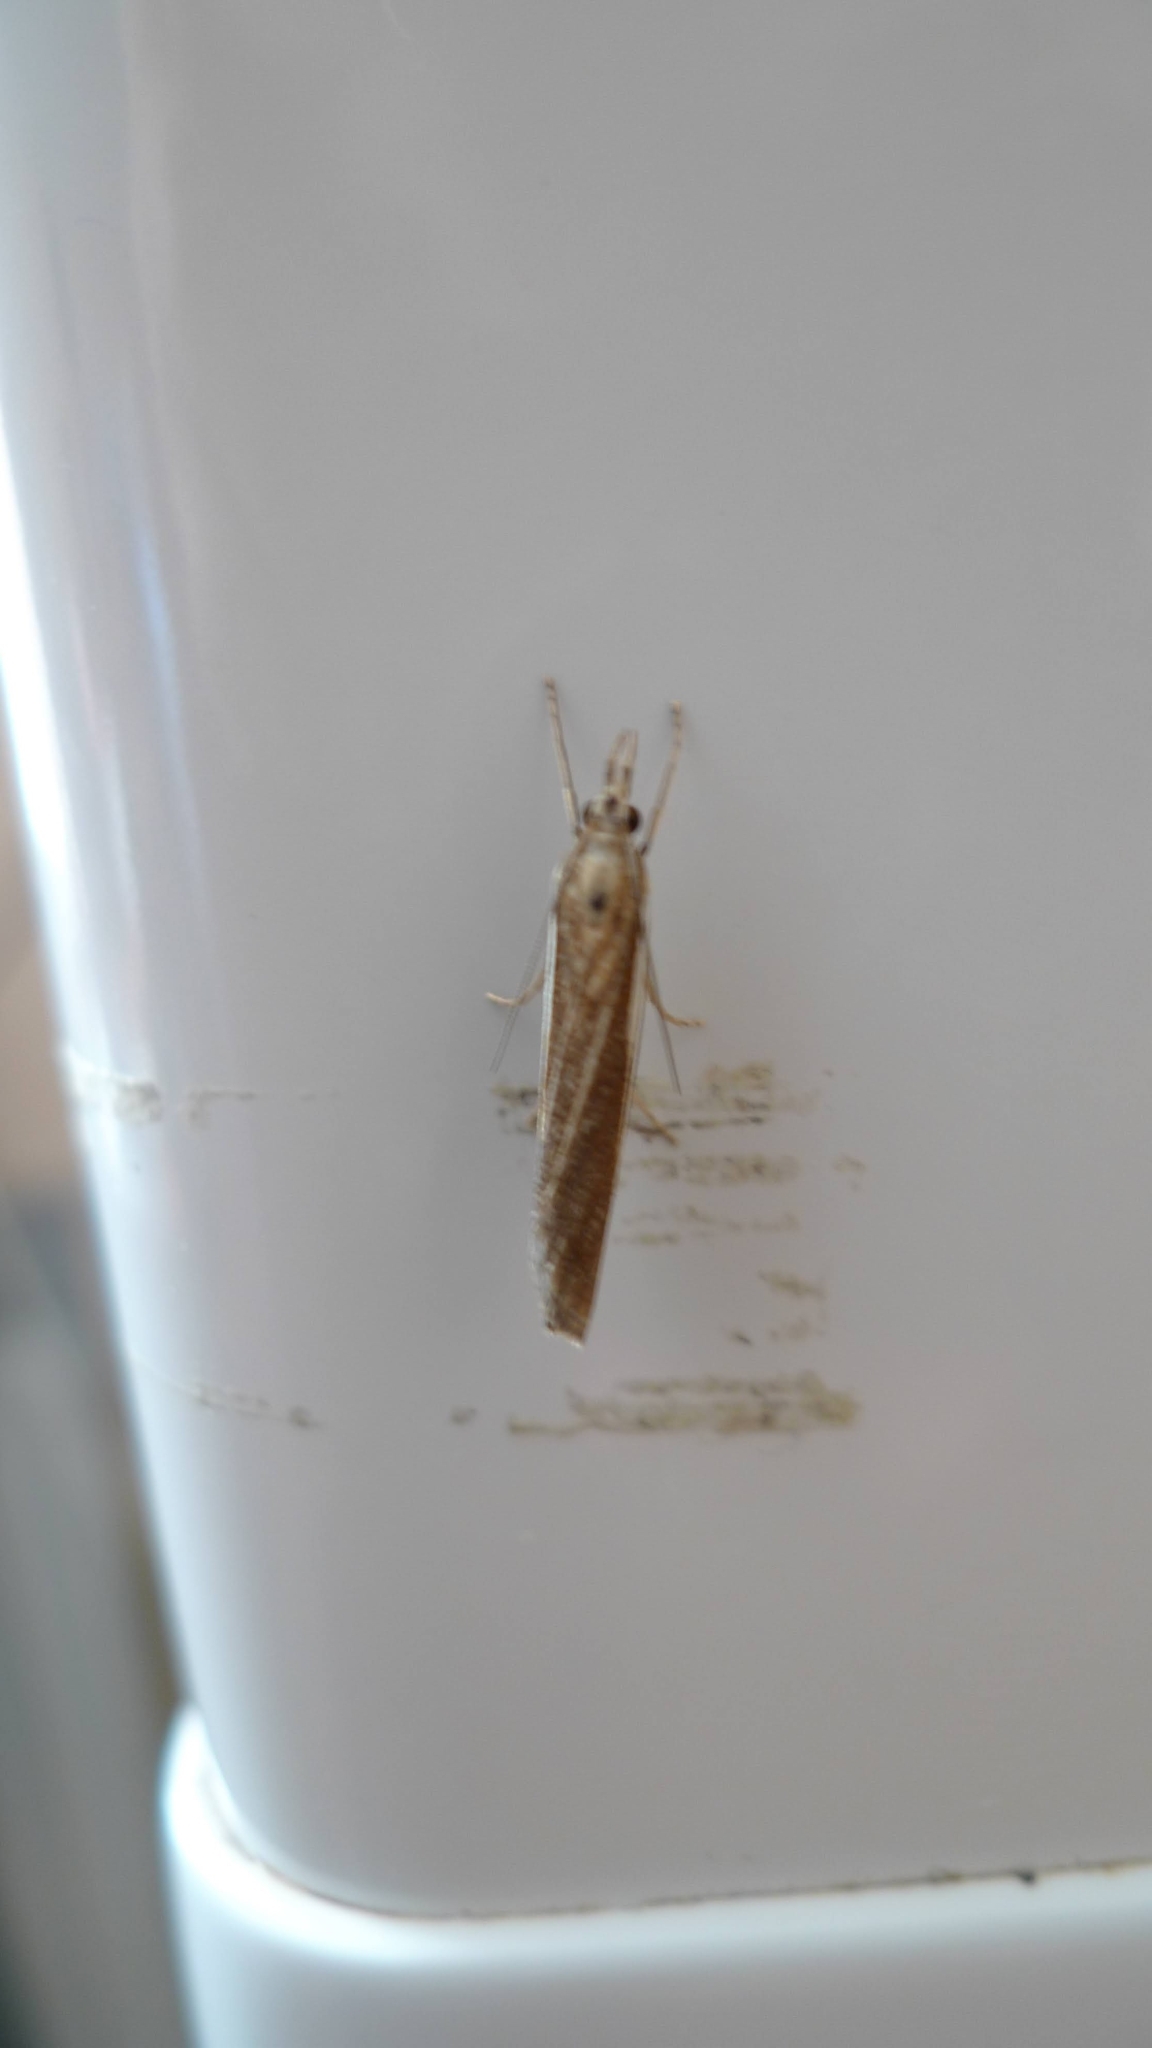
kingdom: Animalia
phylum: Arthropoda
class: Insecta
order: Lepidoptera
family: Crambidae
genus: Agriphila
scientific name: Agriphila tristellus
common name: Common grass-veneer
